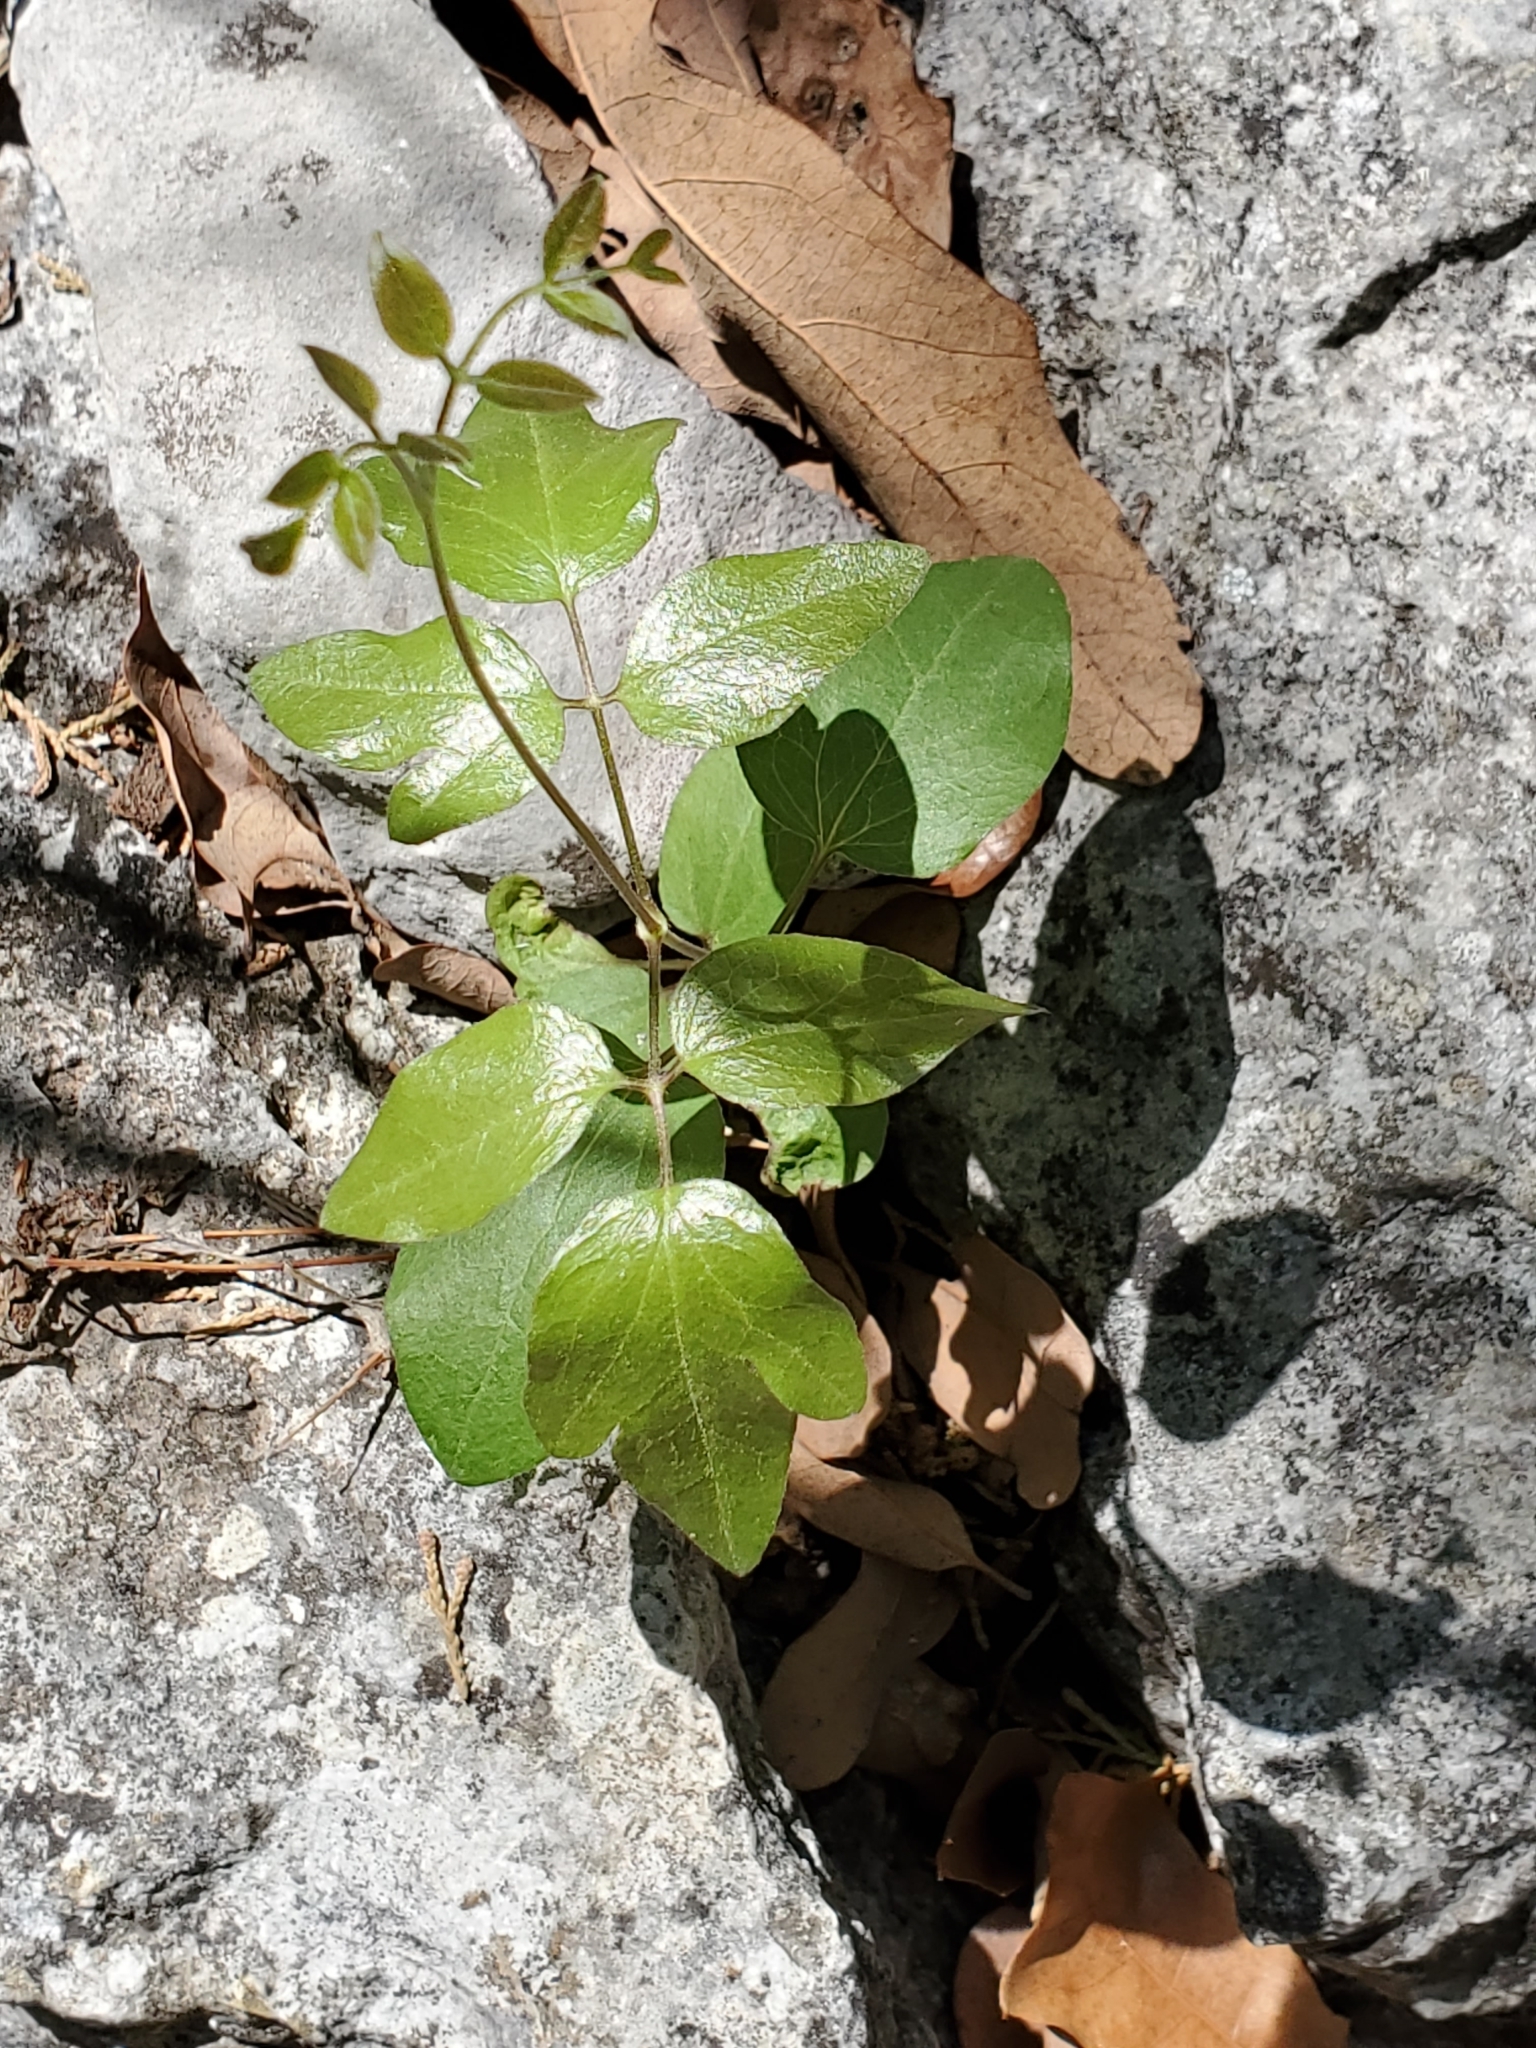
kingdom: Plantae
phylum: Tracheophyta
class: Magnoliopsida
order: Ranunculales
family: Ranunculaceae
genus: Clematis
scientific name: Clematis pitcheri
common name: Bellflower clematis
